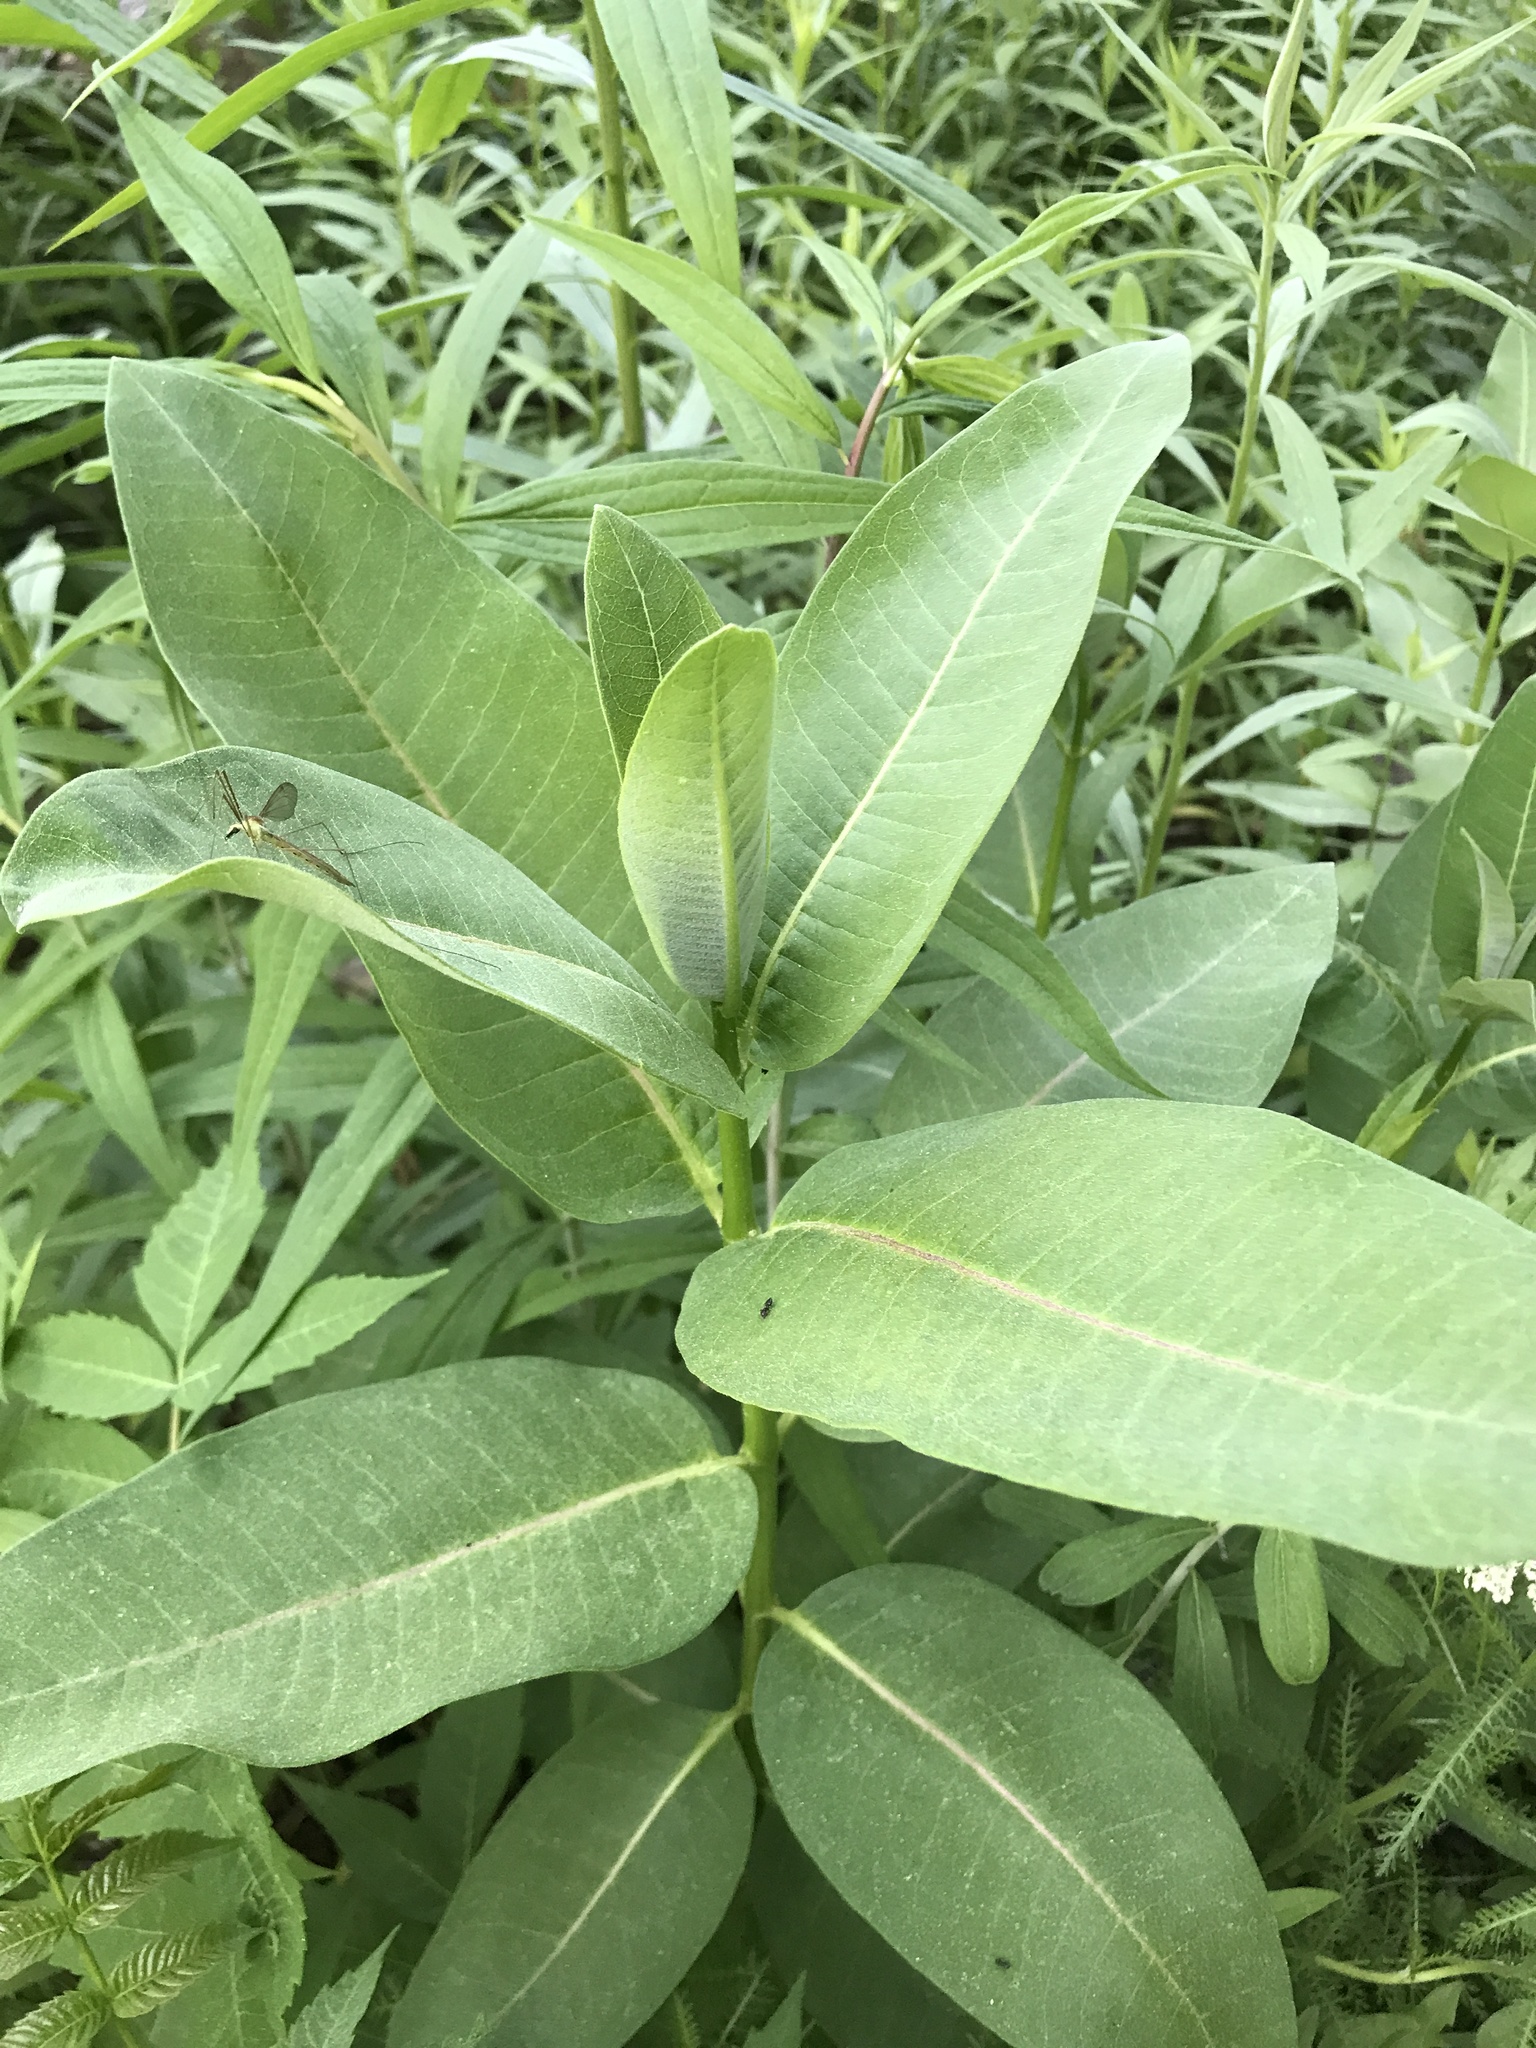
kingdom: Plantae
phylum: Tracheophyta
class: Magnoliopsida
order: Gentianales
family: Apocynaceae
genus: Asclepias
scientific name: Asclepias syriaca
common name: Common milkweed
